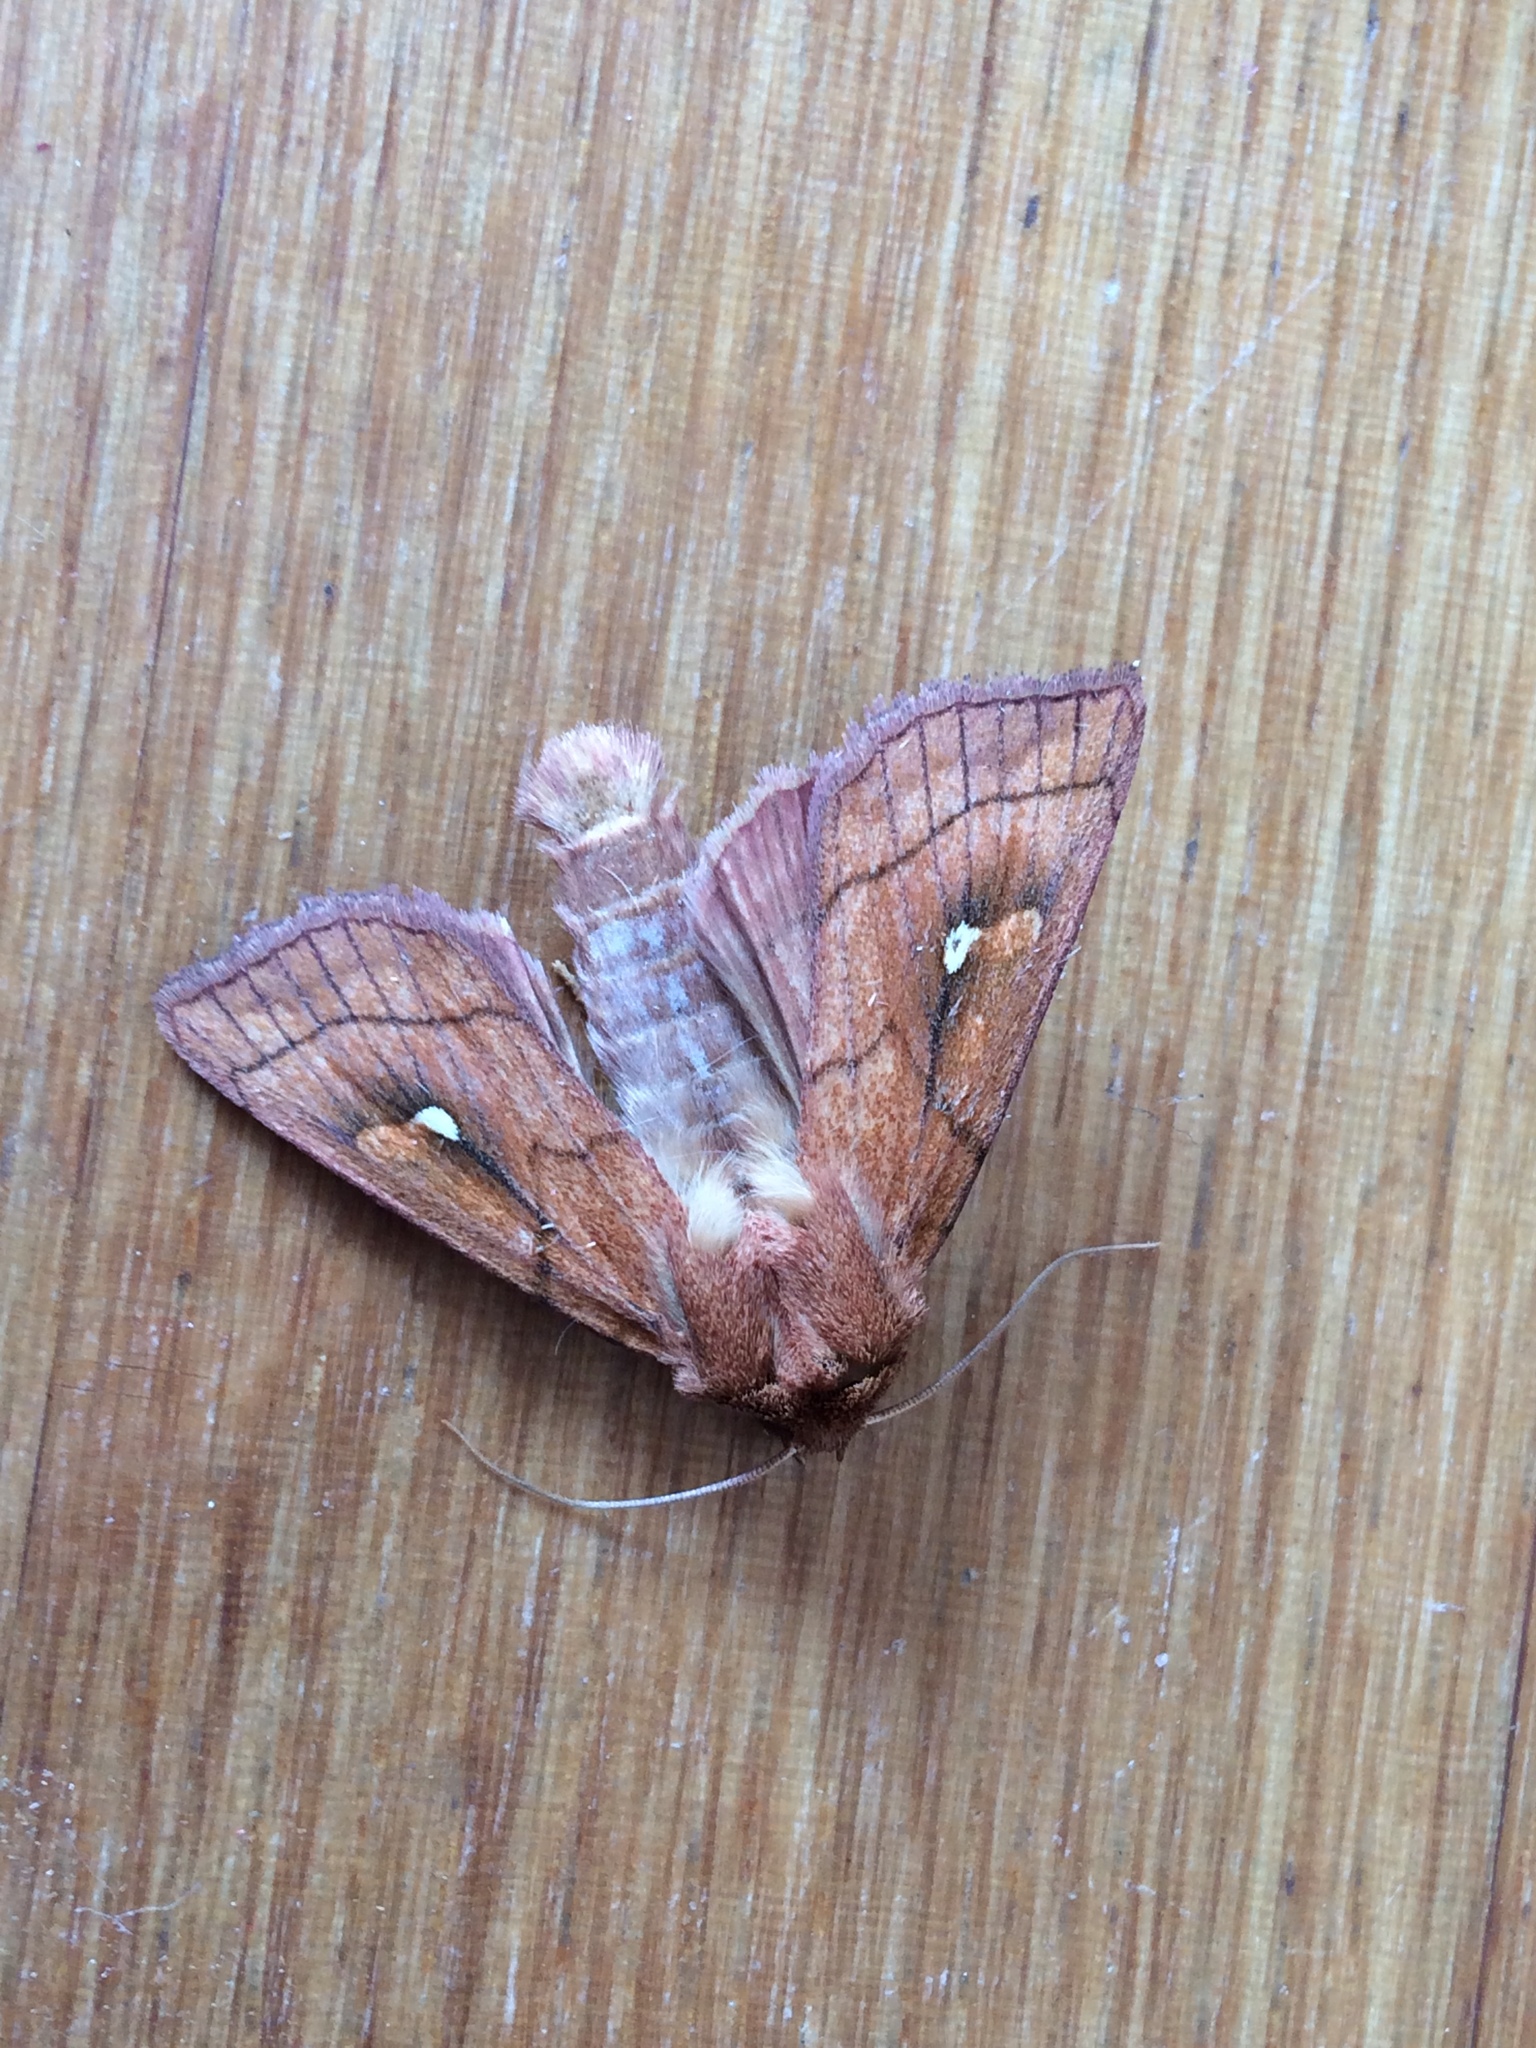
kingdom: Animalia
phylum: Arthropoda
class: Insecta
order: Lepidoptera
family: Noctuidae
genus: Mythimna
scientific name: Mythimna conigera
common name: Brown-line bright-eye
